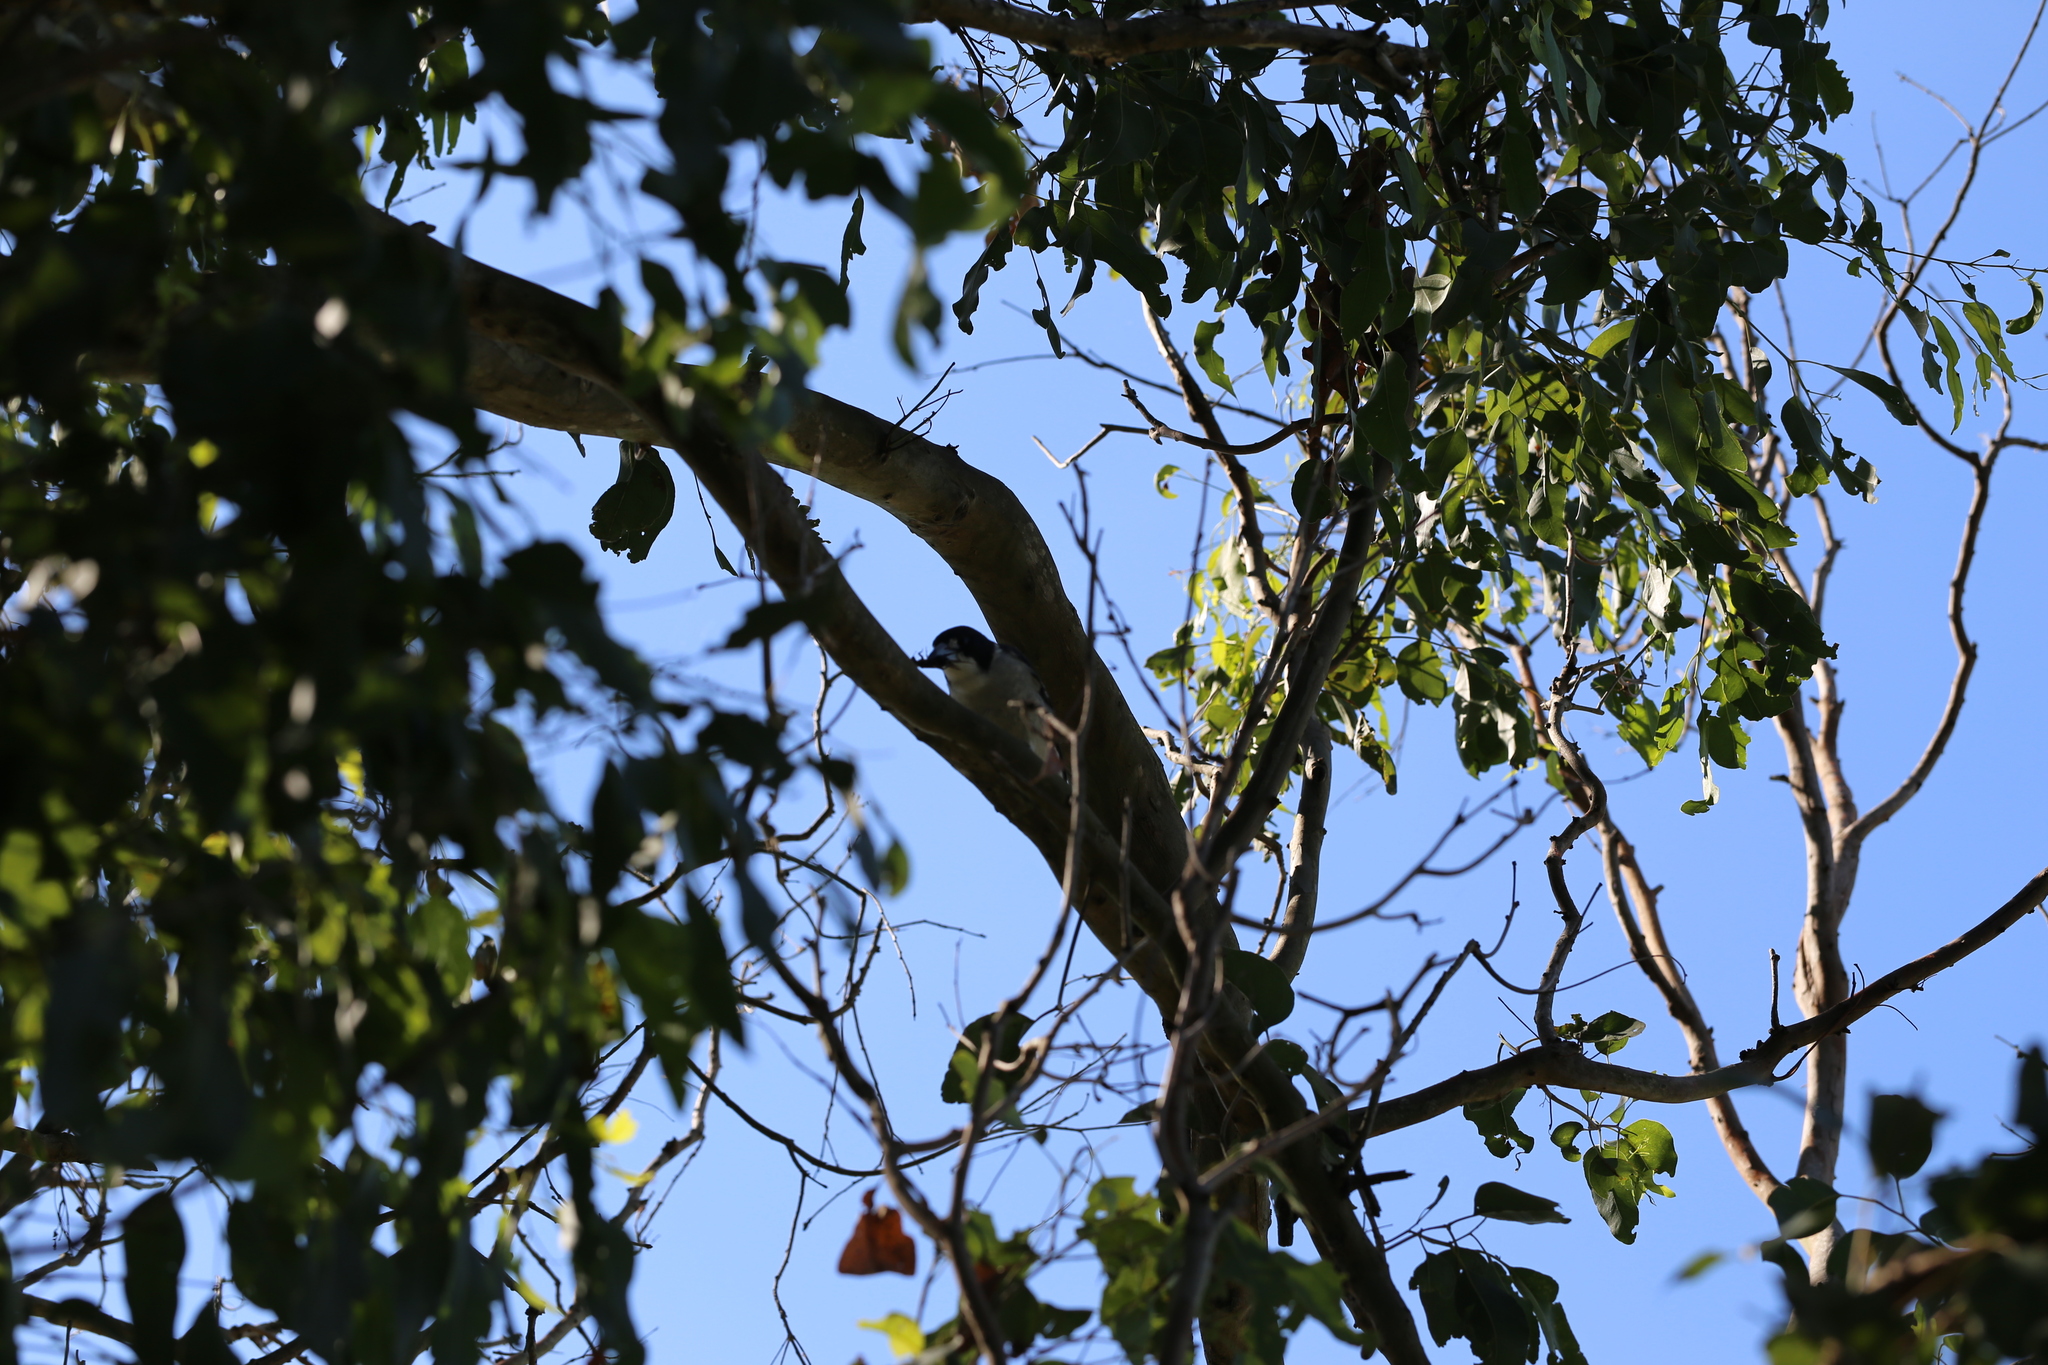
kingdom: Animalia
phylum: Chordata
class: Aves
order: Passeriformes
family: Cracticidae
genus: Cracticus
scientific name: Cracticus torquatus
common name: Grey butcherbird
